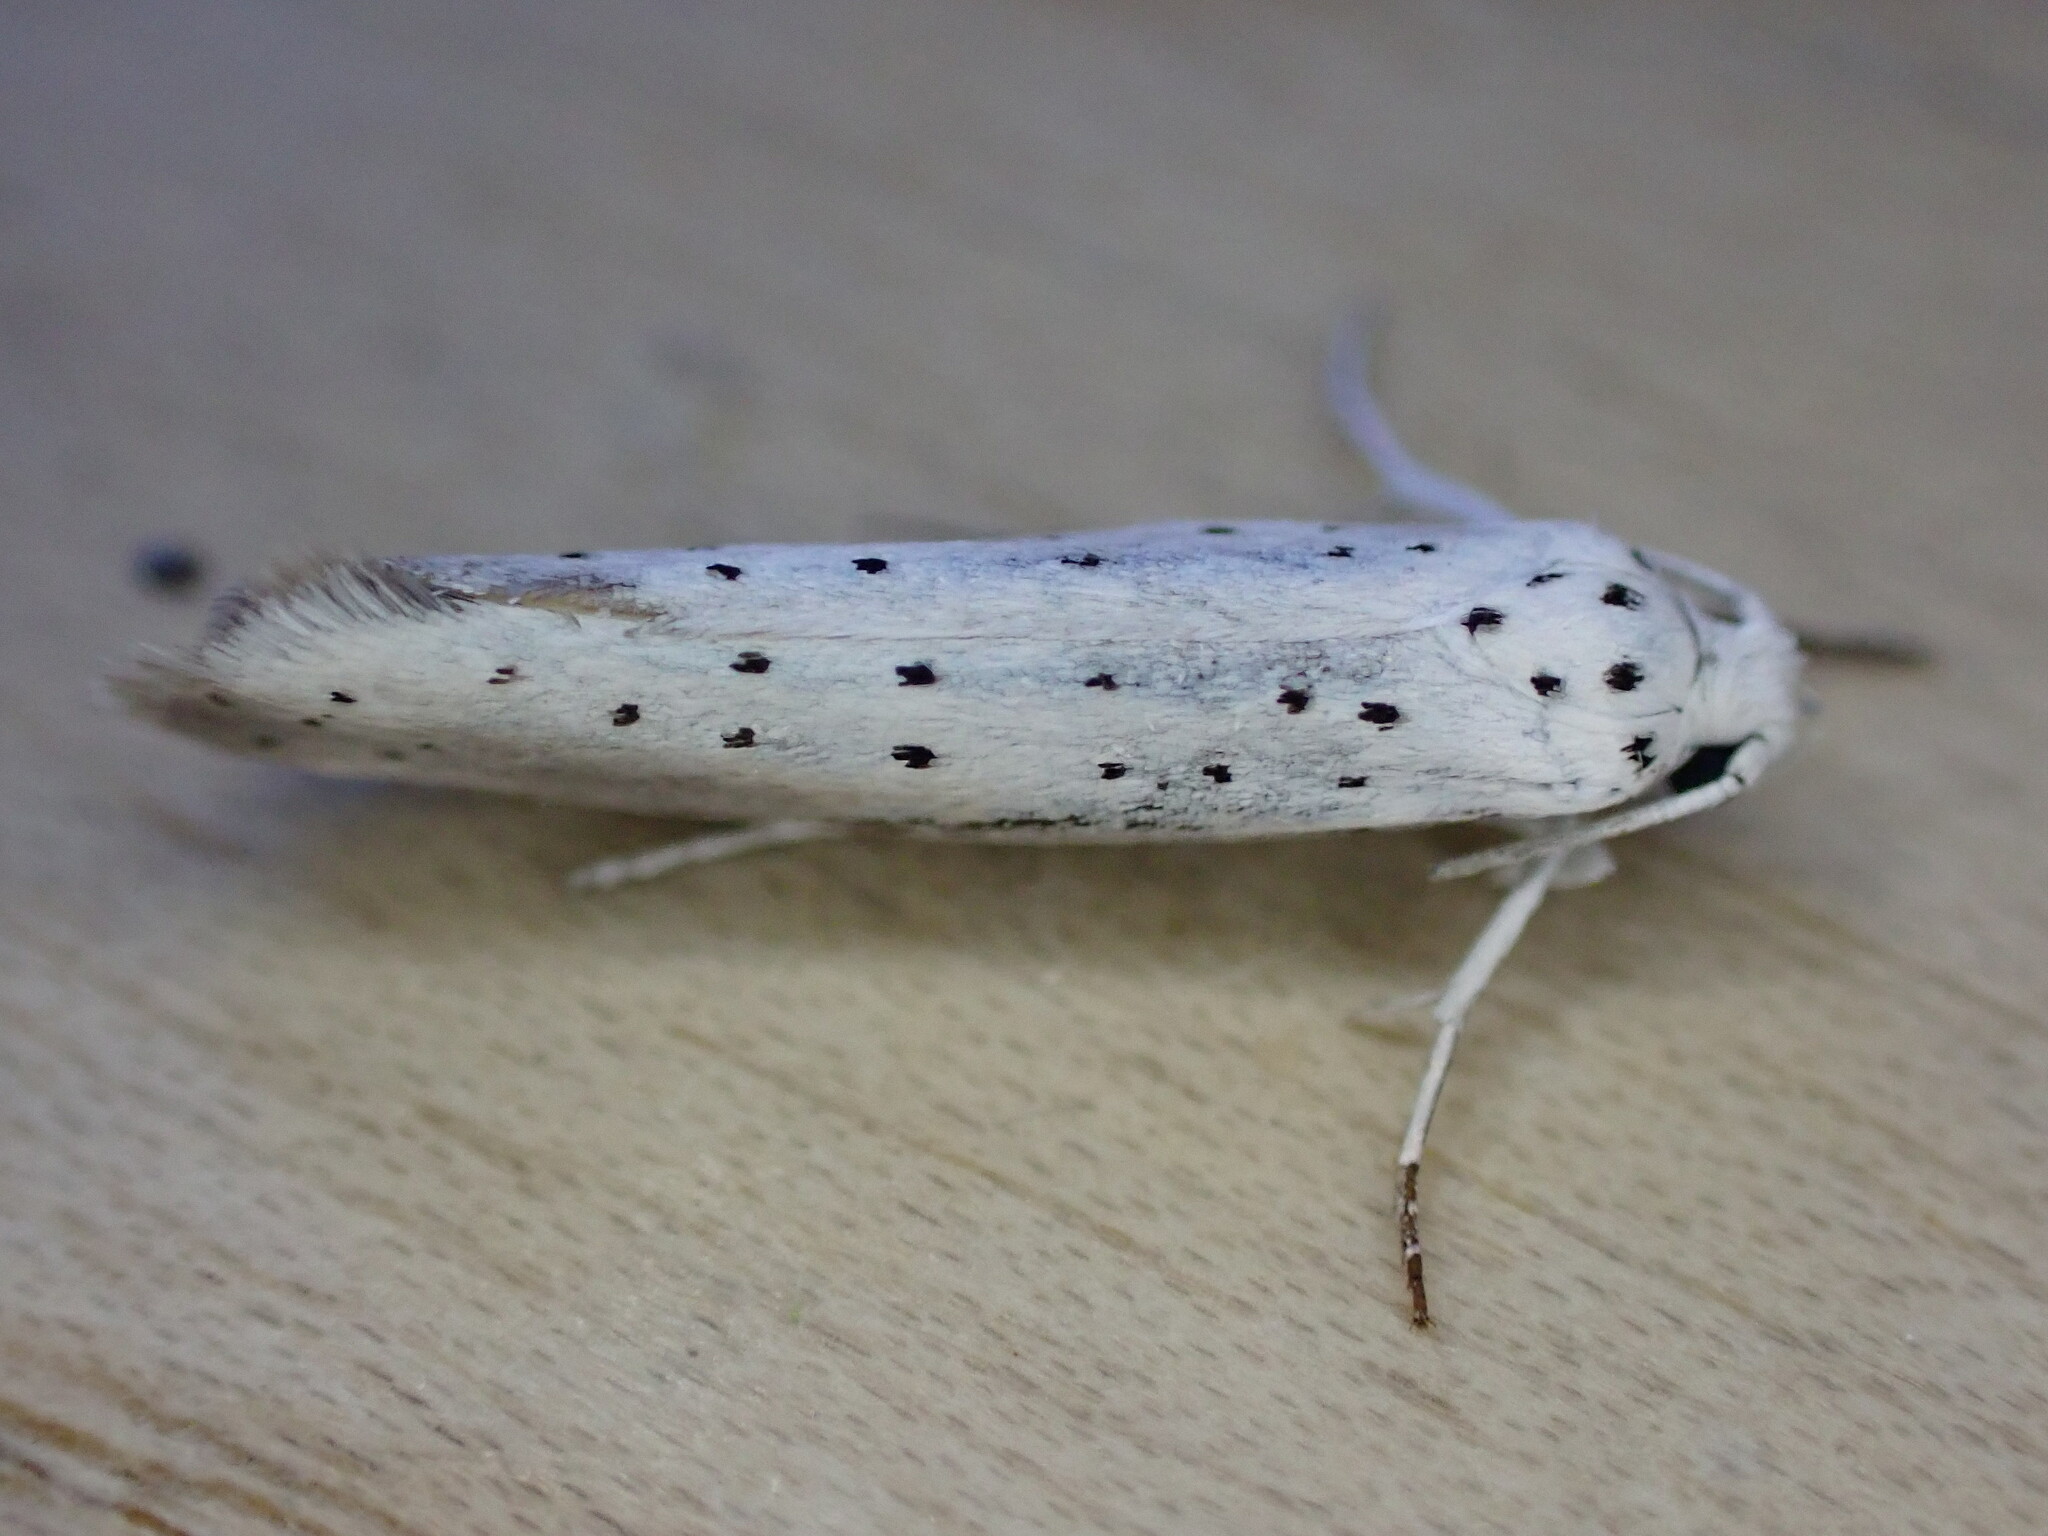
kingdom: Animalia
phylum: Arthropoda
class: Insecta
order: Lepidoptera
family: Yponomeutidae
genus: Yponomeuta
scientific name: Yponomeuta
